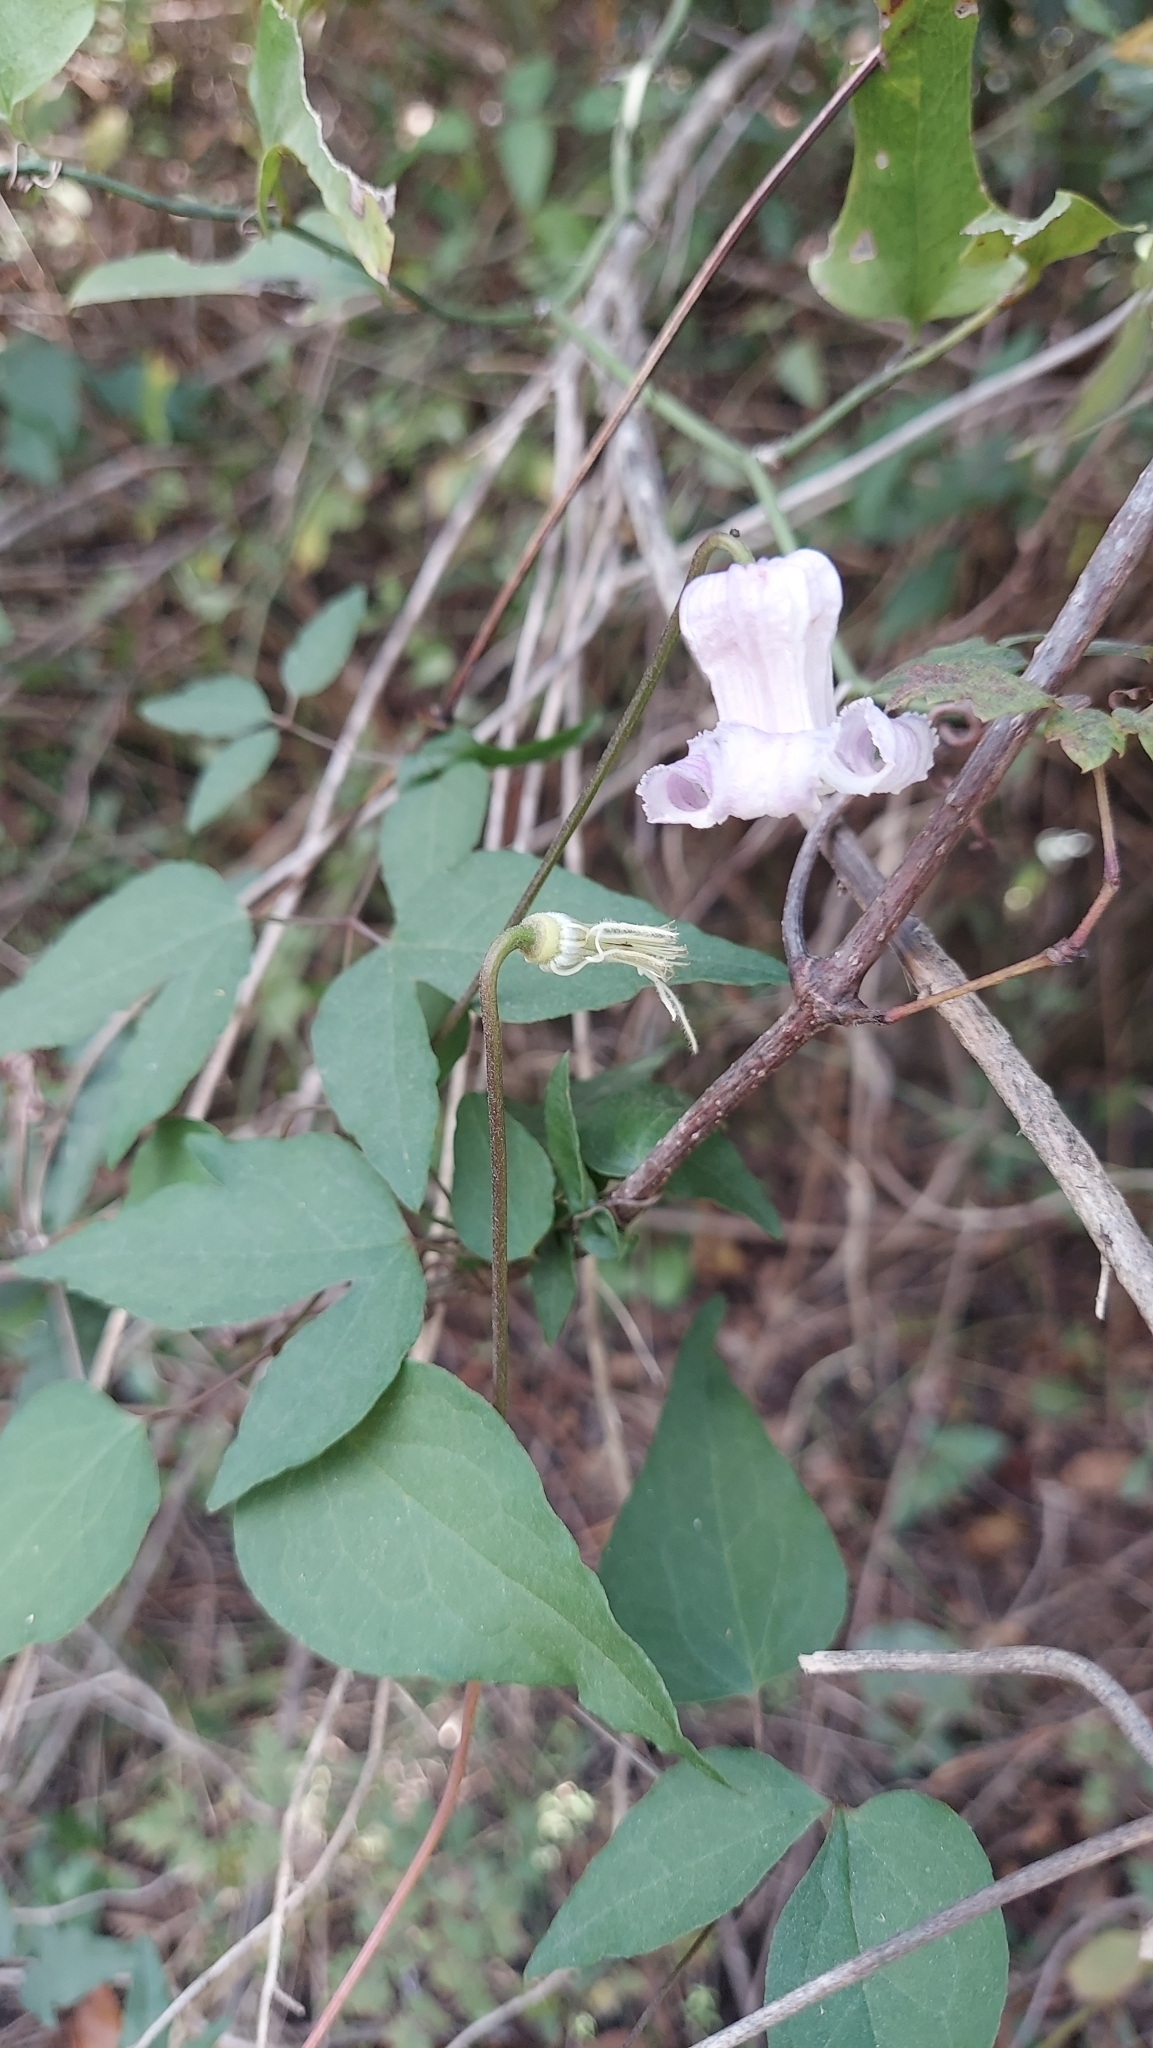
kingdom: Plantae
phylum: Tracheophyta
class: Magnoliopsida
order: Ranunculales
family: Ranunculaceae
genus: Clematis
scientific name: Clematis crispa
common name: Curly clematis
